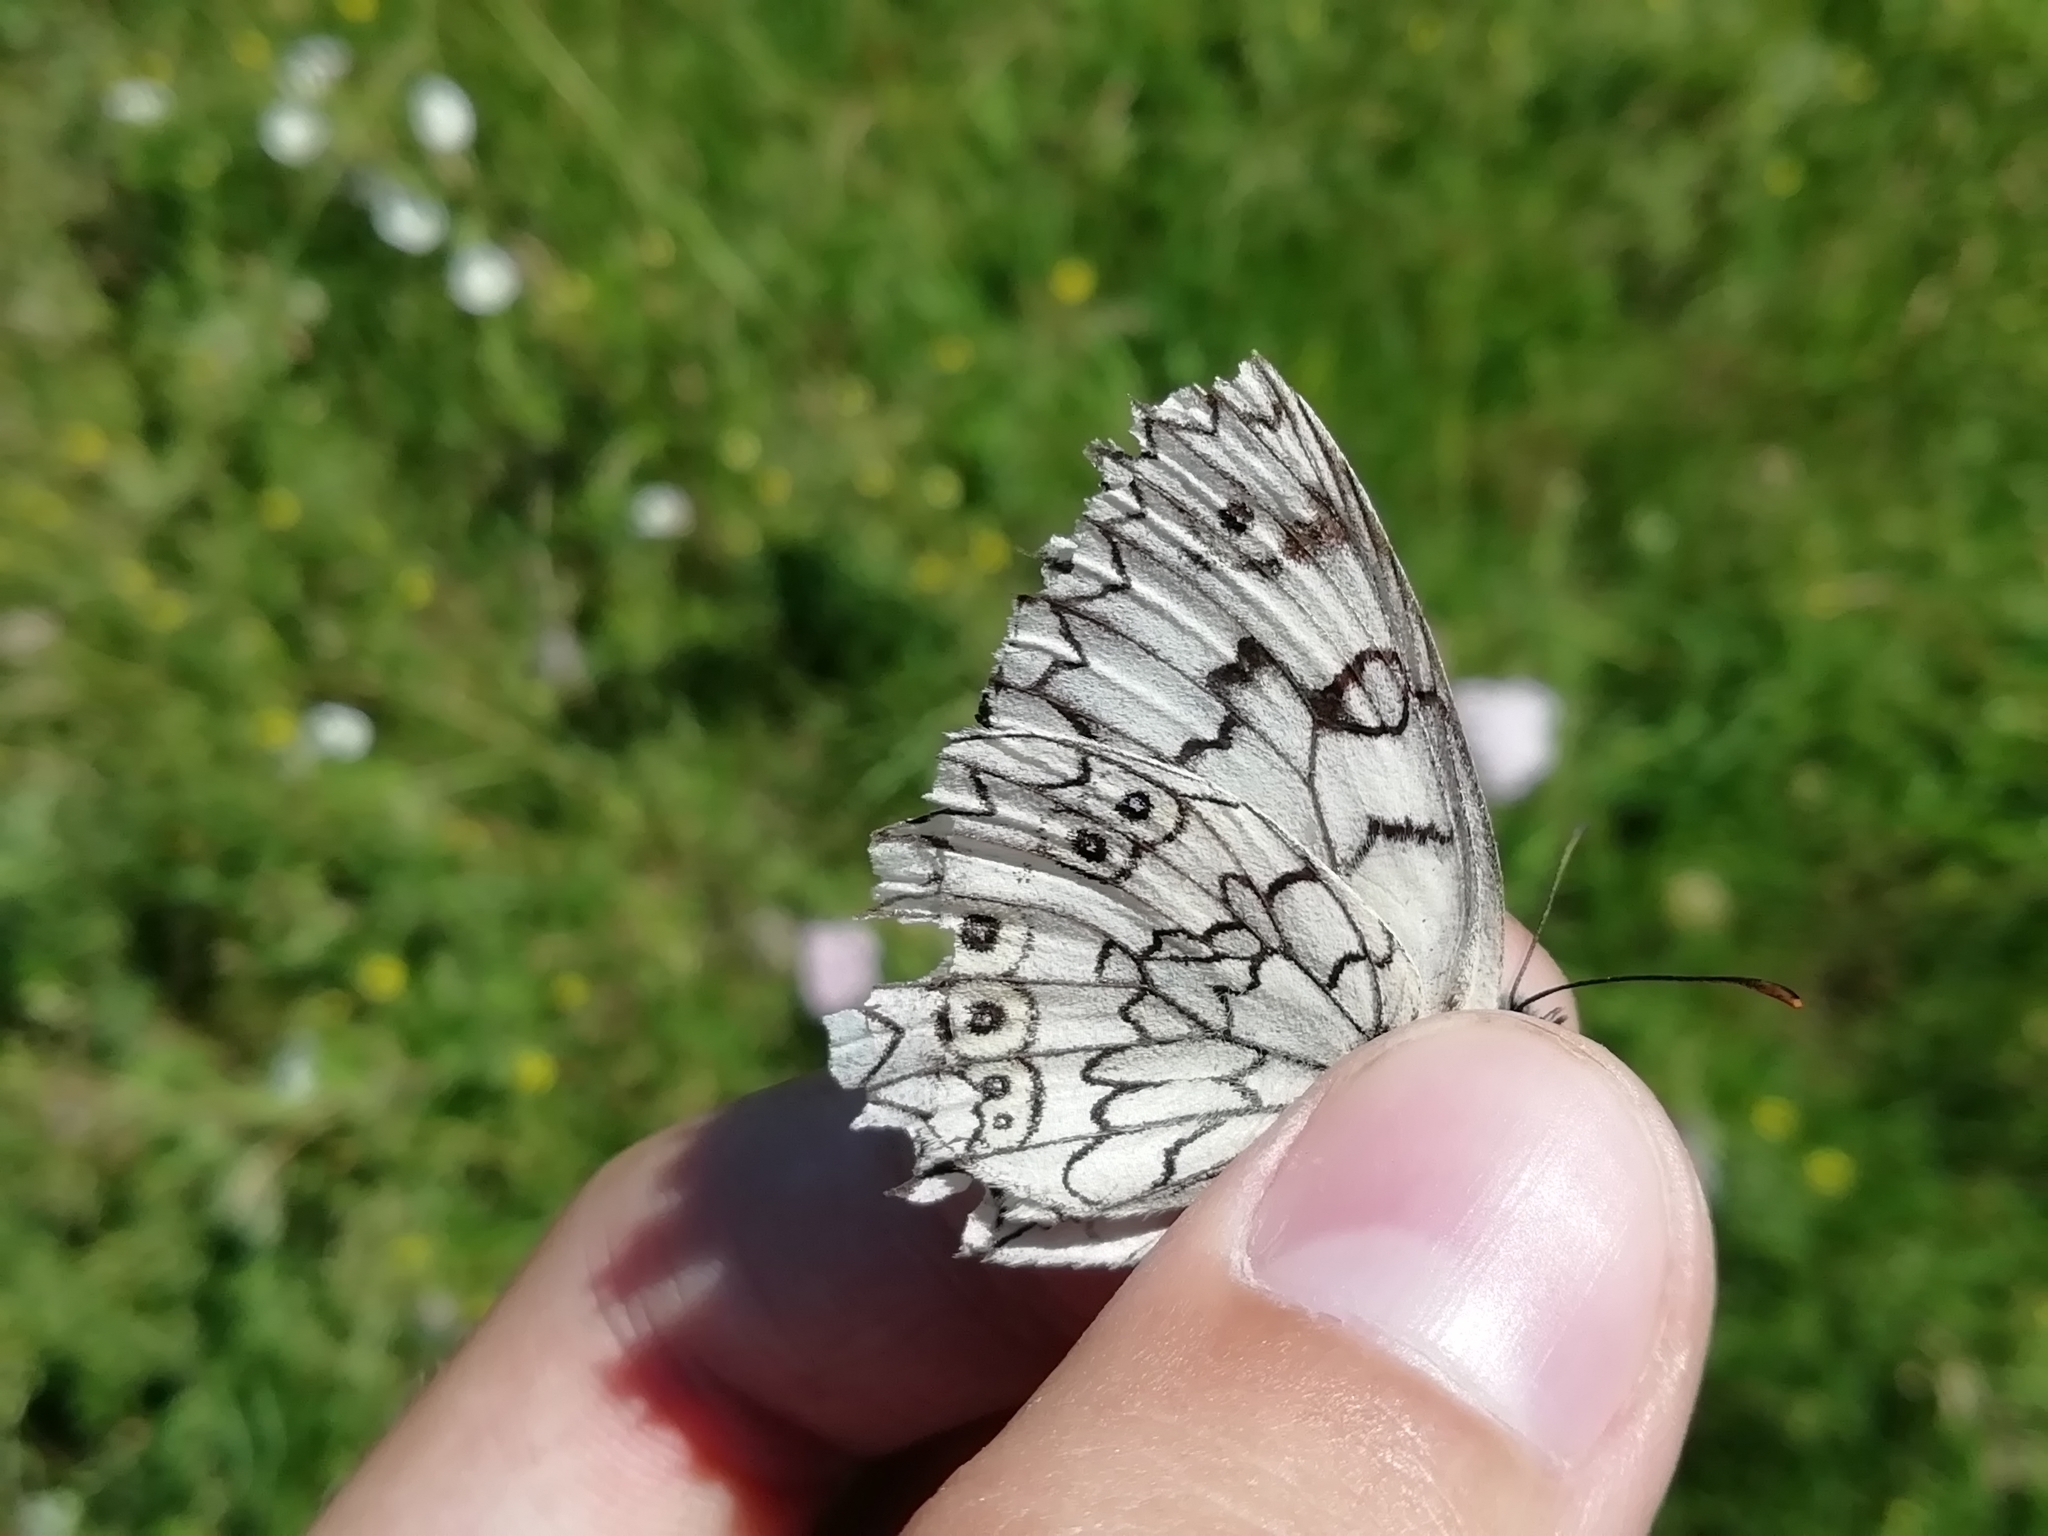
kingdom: Animalia
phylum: Arthropoda
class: Insecta
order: Lepidoptera
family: Nymphalidae
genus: Melanargia
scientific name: Melanargia japygia
